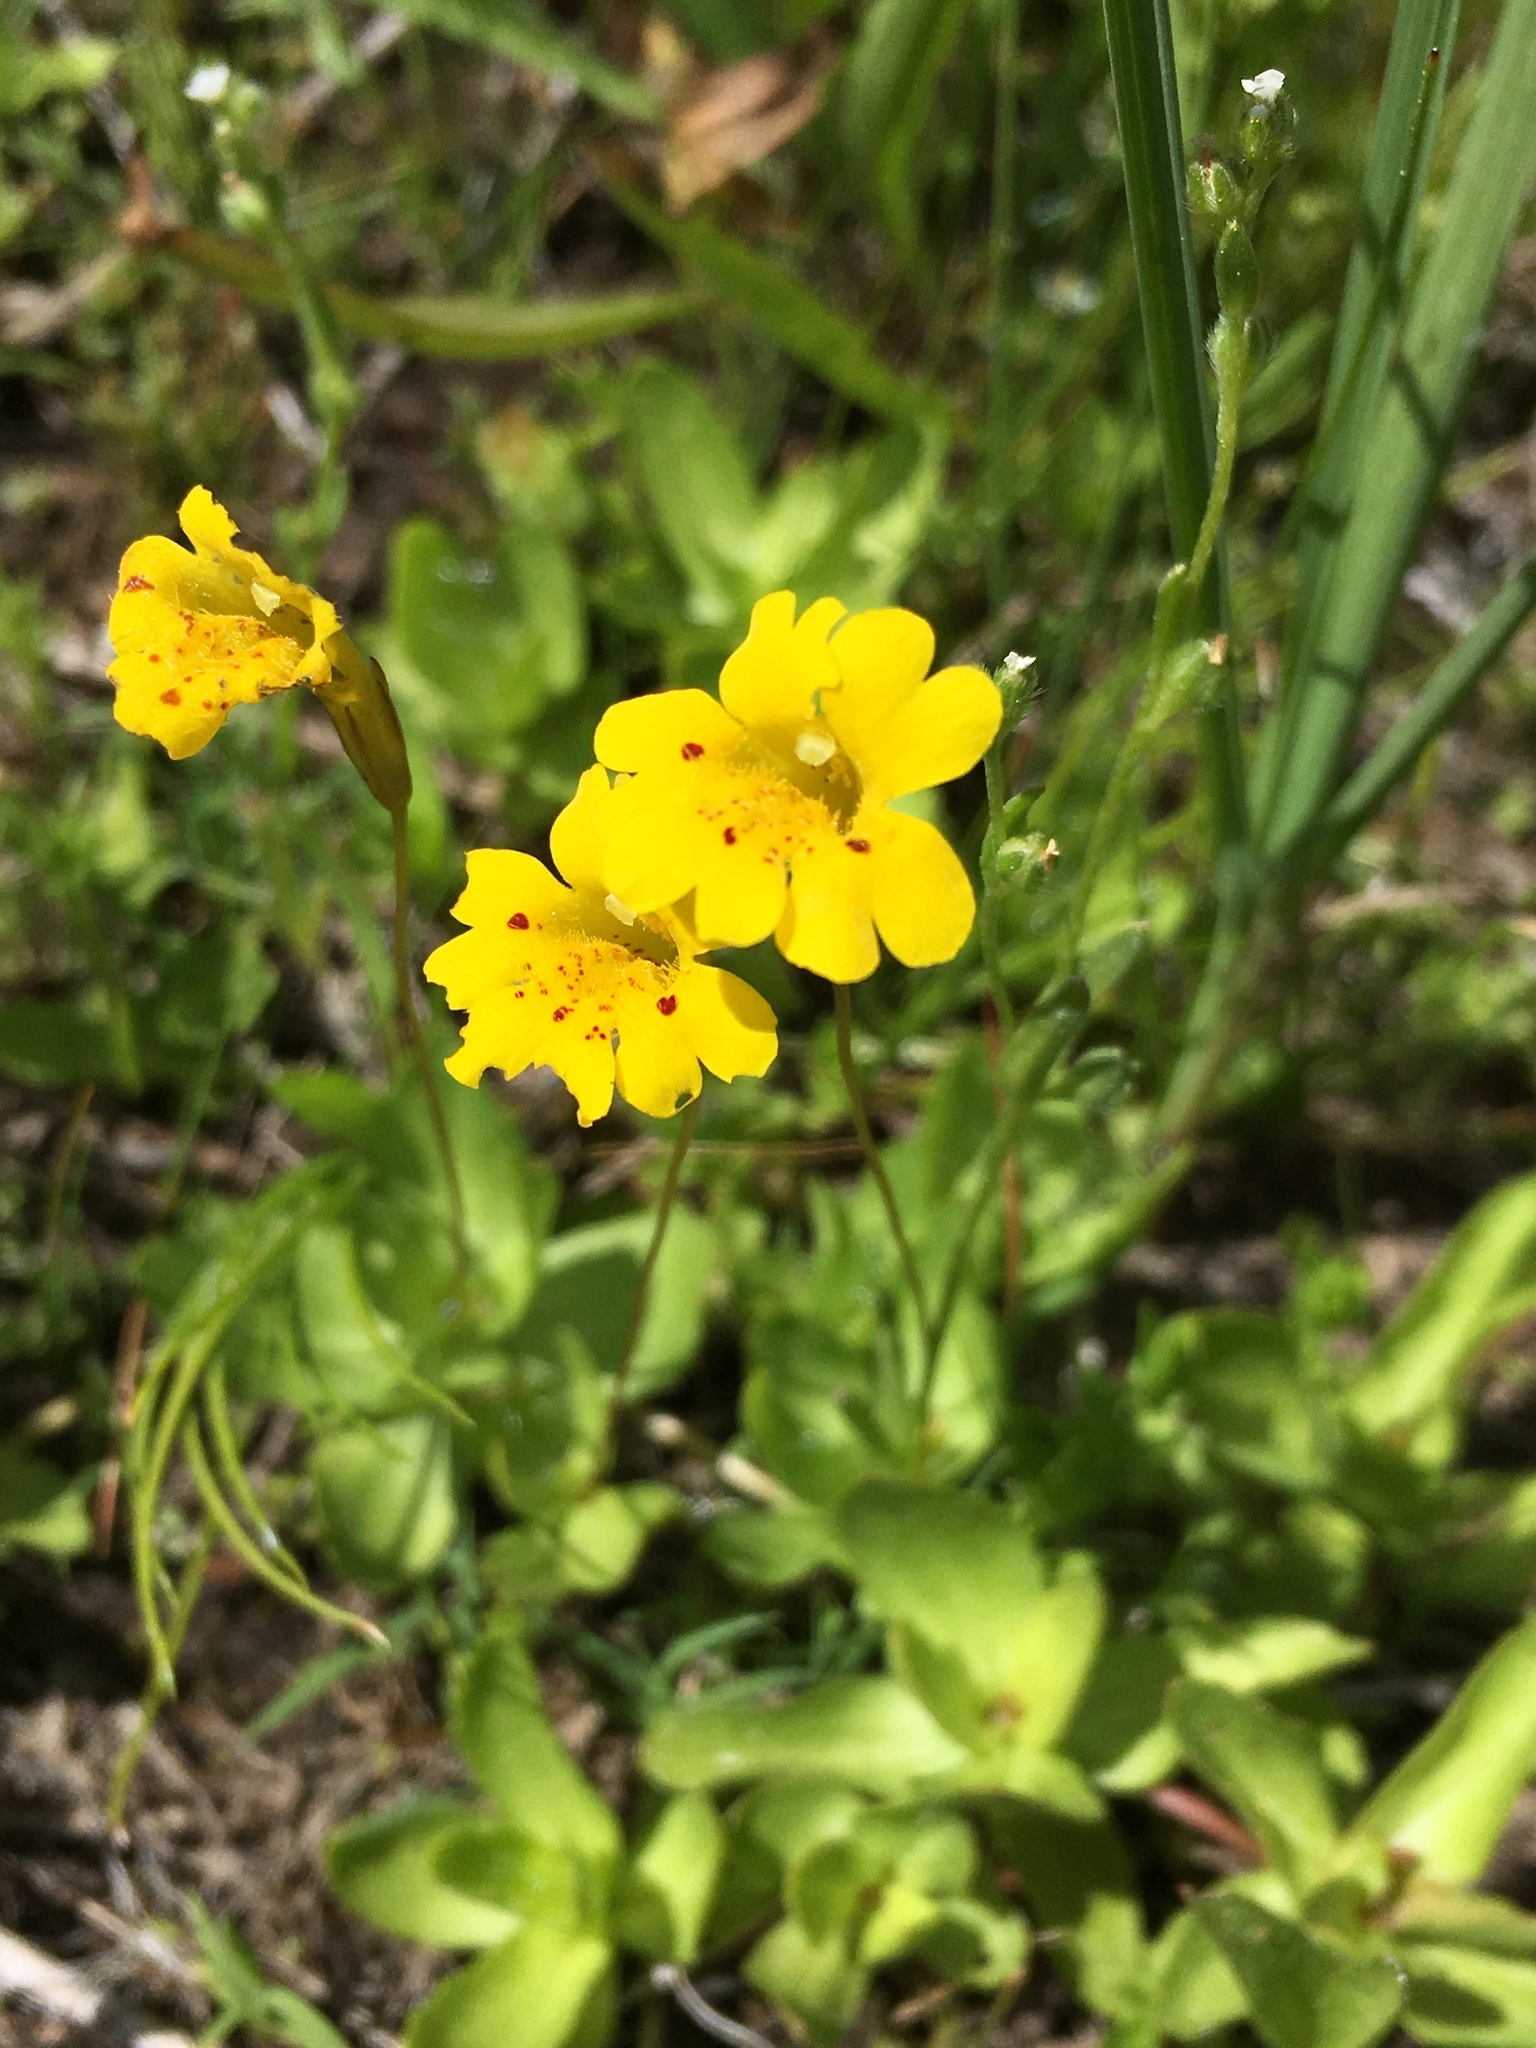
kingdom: Plantae
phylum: Tracheophyta
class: Magnoliopsida
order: Lamiales
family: Phrymaceae
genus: Erythranthe
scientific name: Erythranthe primuloides
